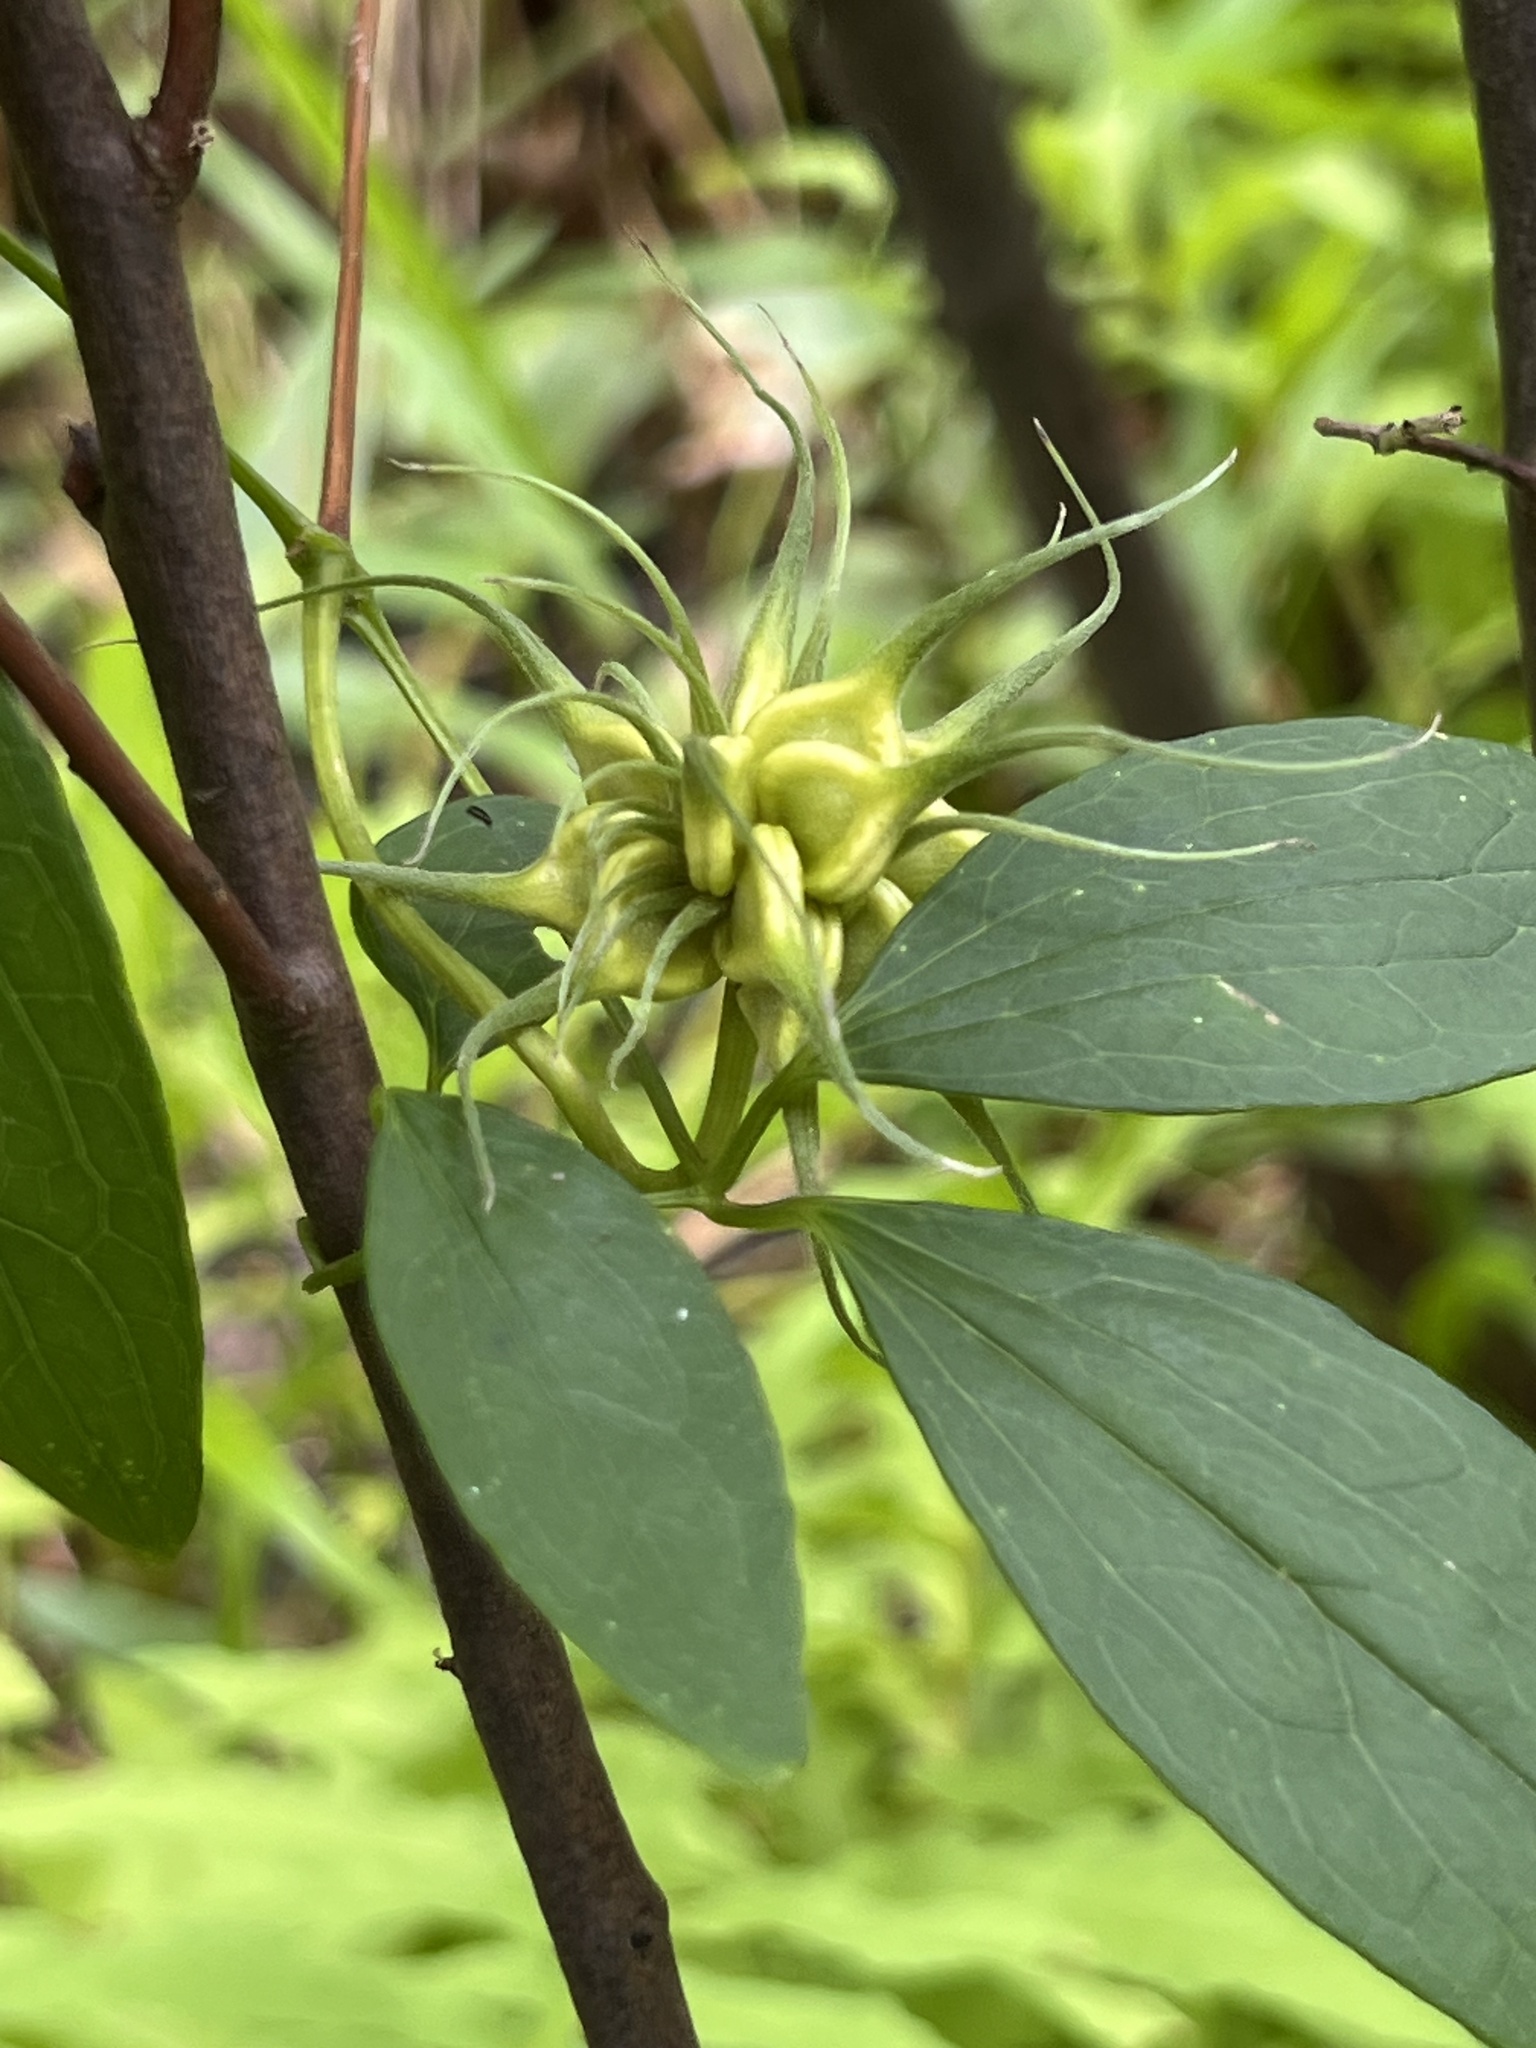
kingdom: Plantae
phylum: Tracheophyta
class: Magnoliopsida
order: Ranunculales
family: Ranunculaceae
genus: Clematis
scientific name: Clematis crispa
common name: Curly clematis
